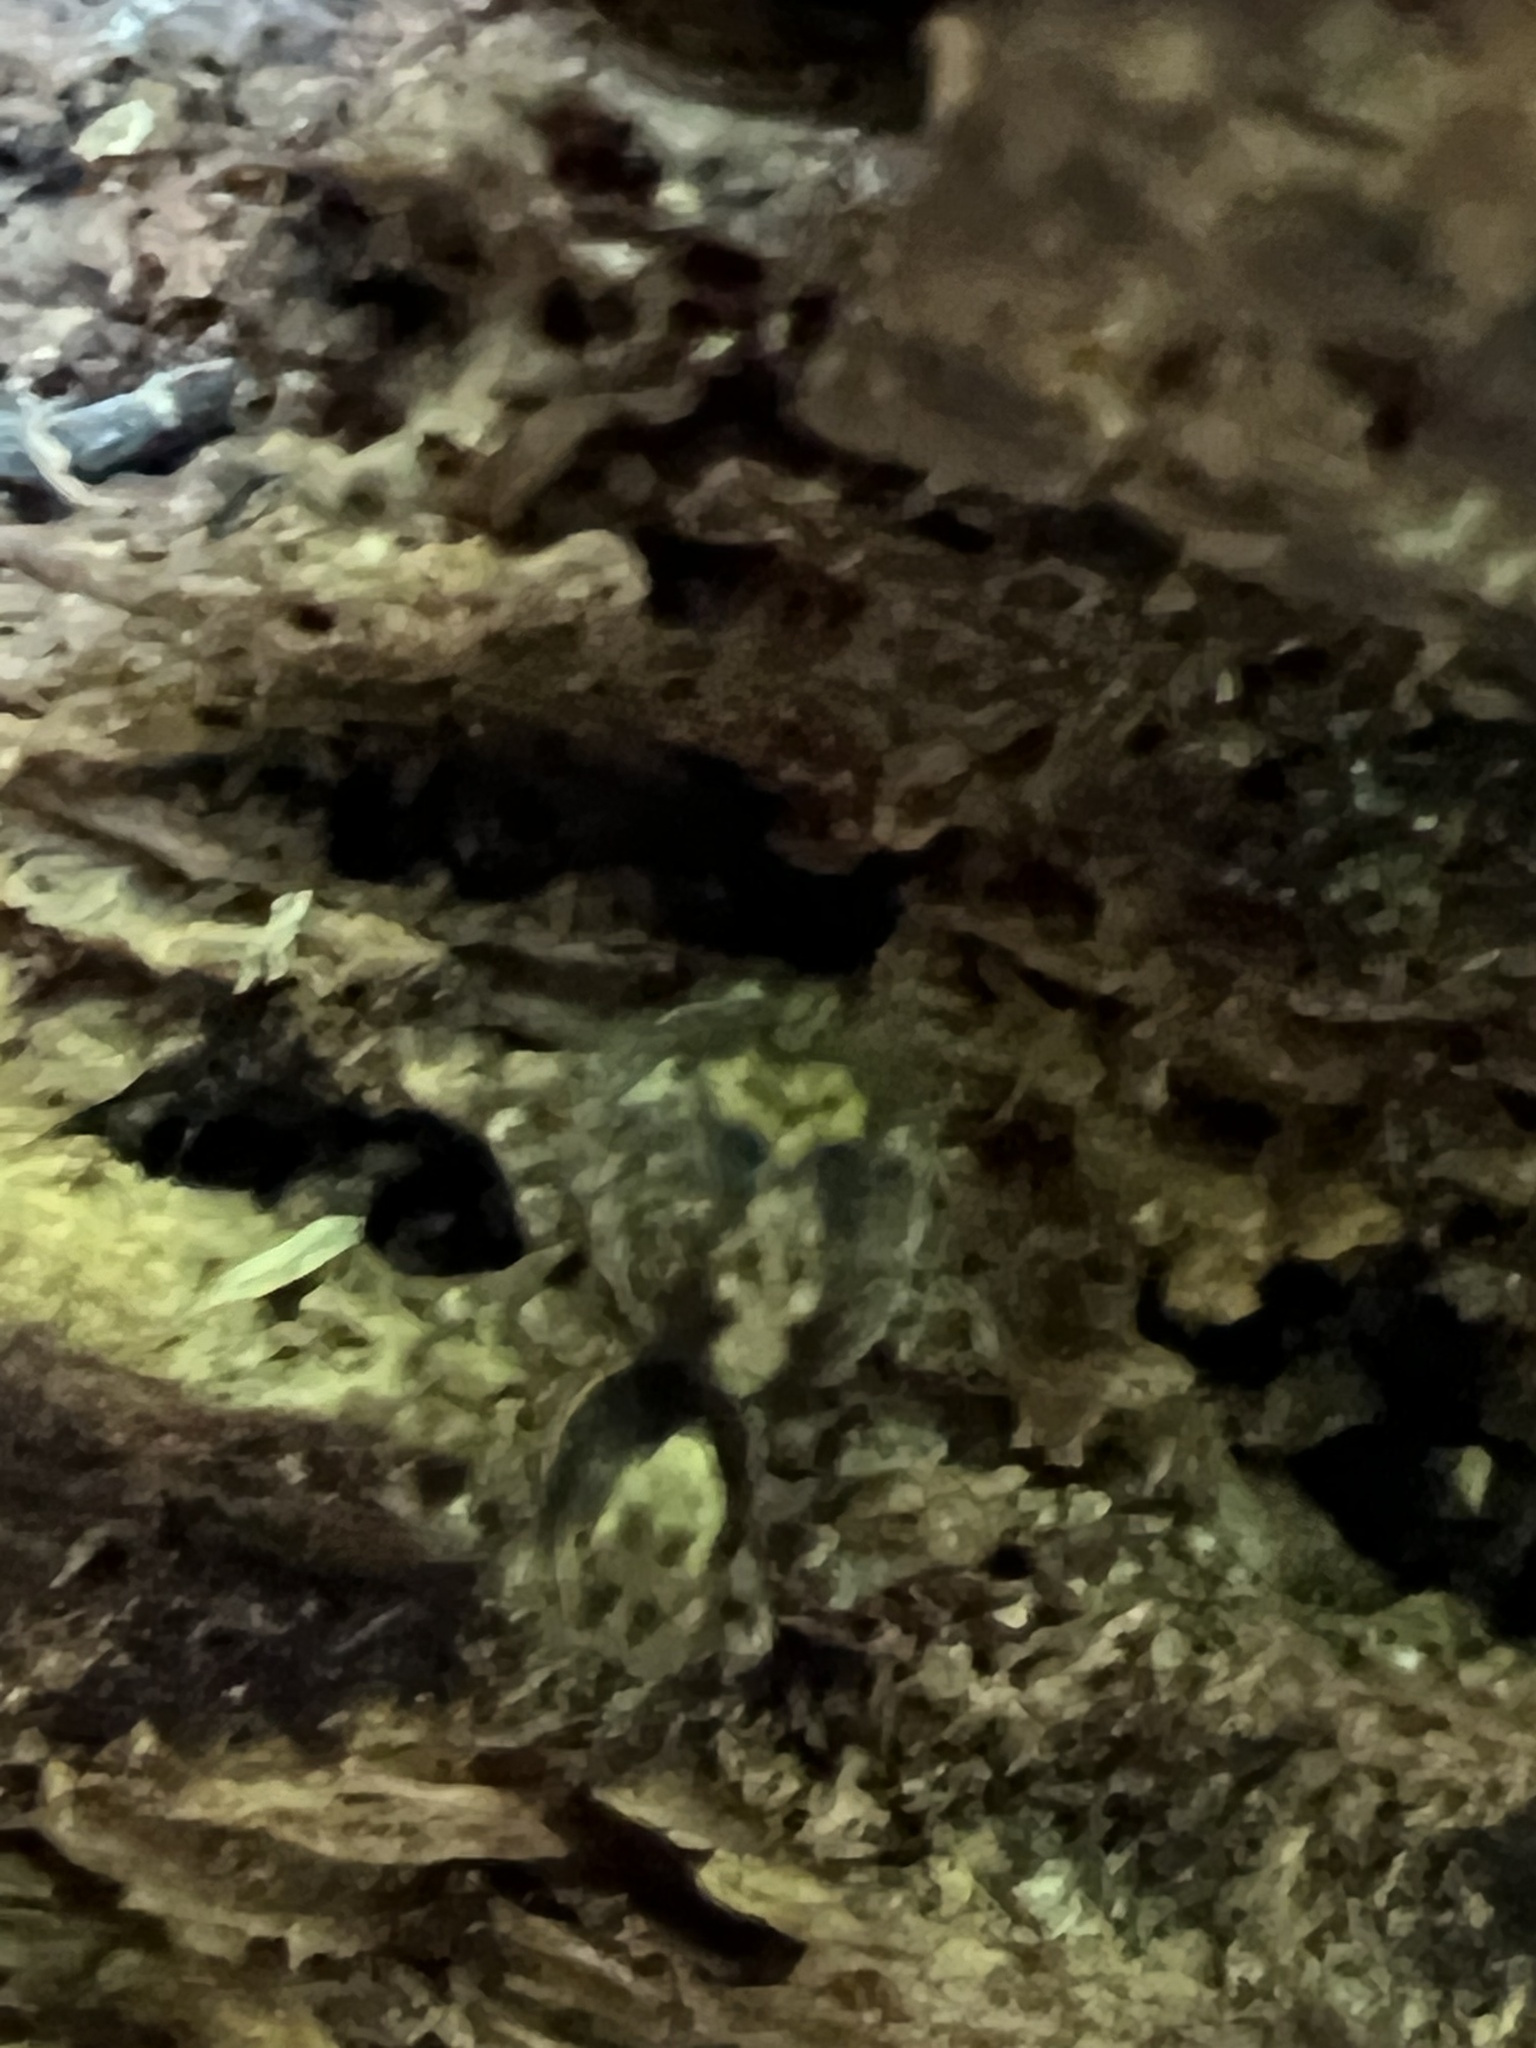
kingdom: Animalia
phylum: Arthropoda
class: Arachnida
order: Araneae
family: Salticidae
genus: Naphrys
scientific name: Naphrys pulex
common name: Flea jumping spider
